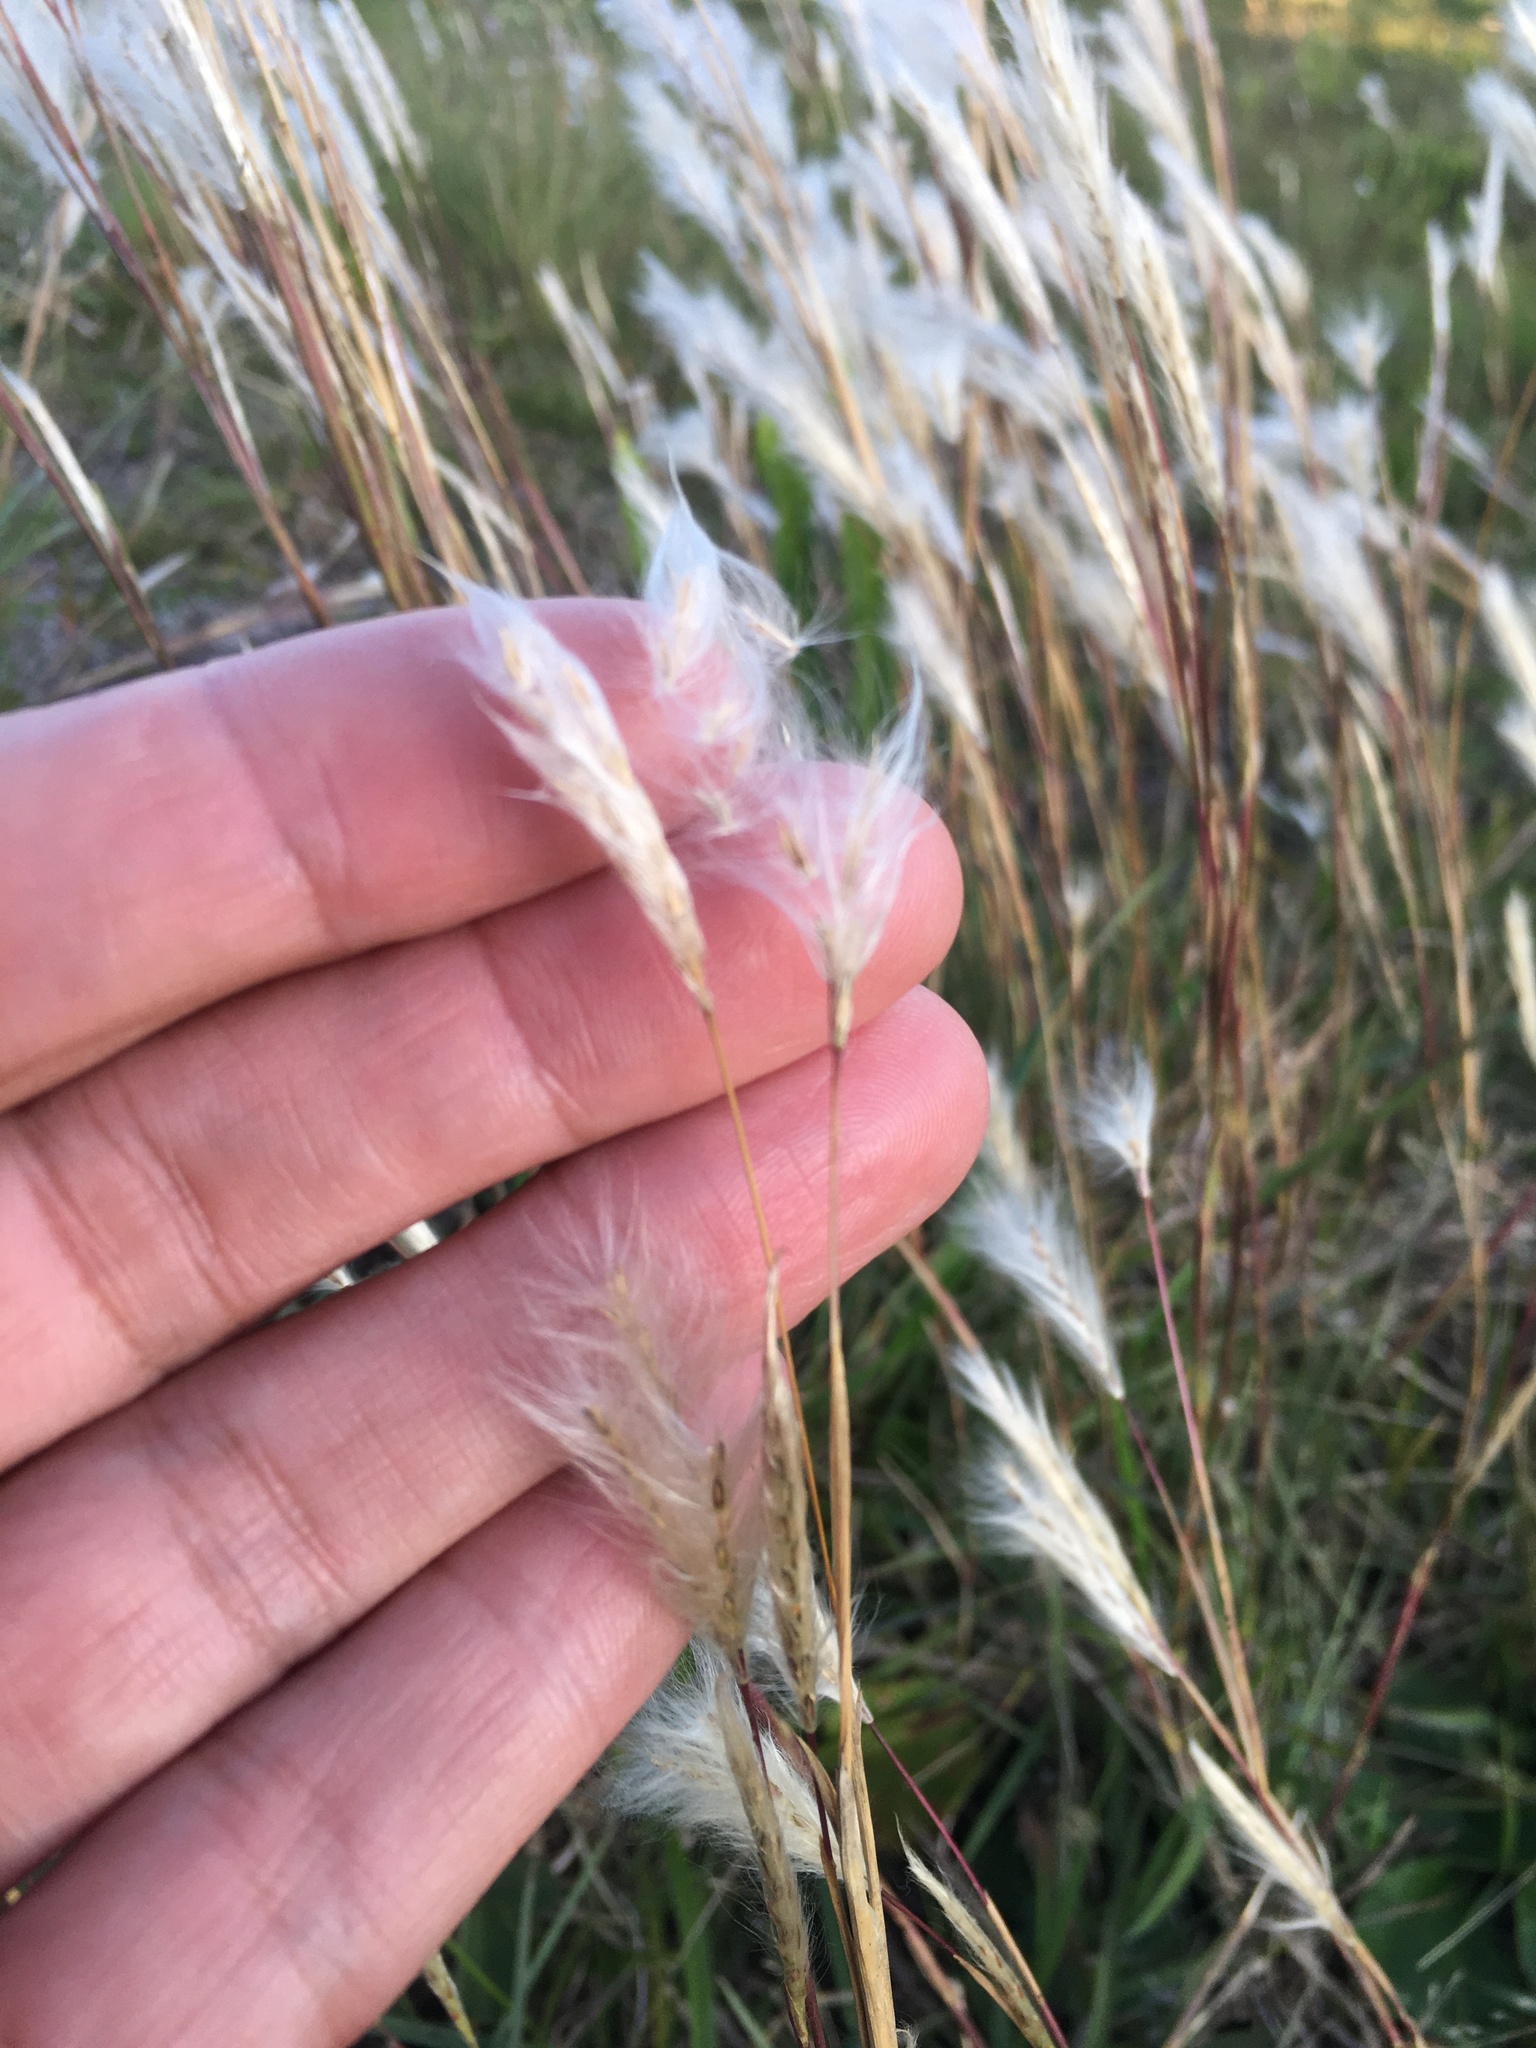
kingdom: Plantae
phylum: Tracheophyta
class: Liliopsida
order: Poales
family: Poaceae
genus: Andropogon
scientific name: Andropogon leucostachyus
